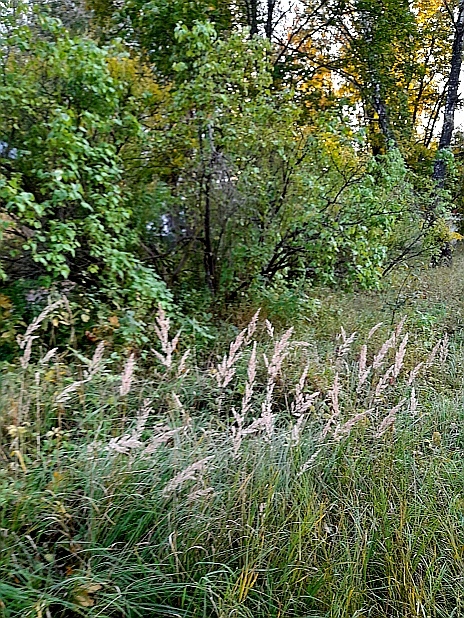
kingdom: Plantae
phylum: Tracheophyta
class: Liliopsida
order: Poales
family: Poaceae
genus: Calamagrostis
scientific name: Calamagrostis epigejos
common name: Wood small-reed
